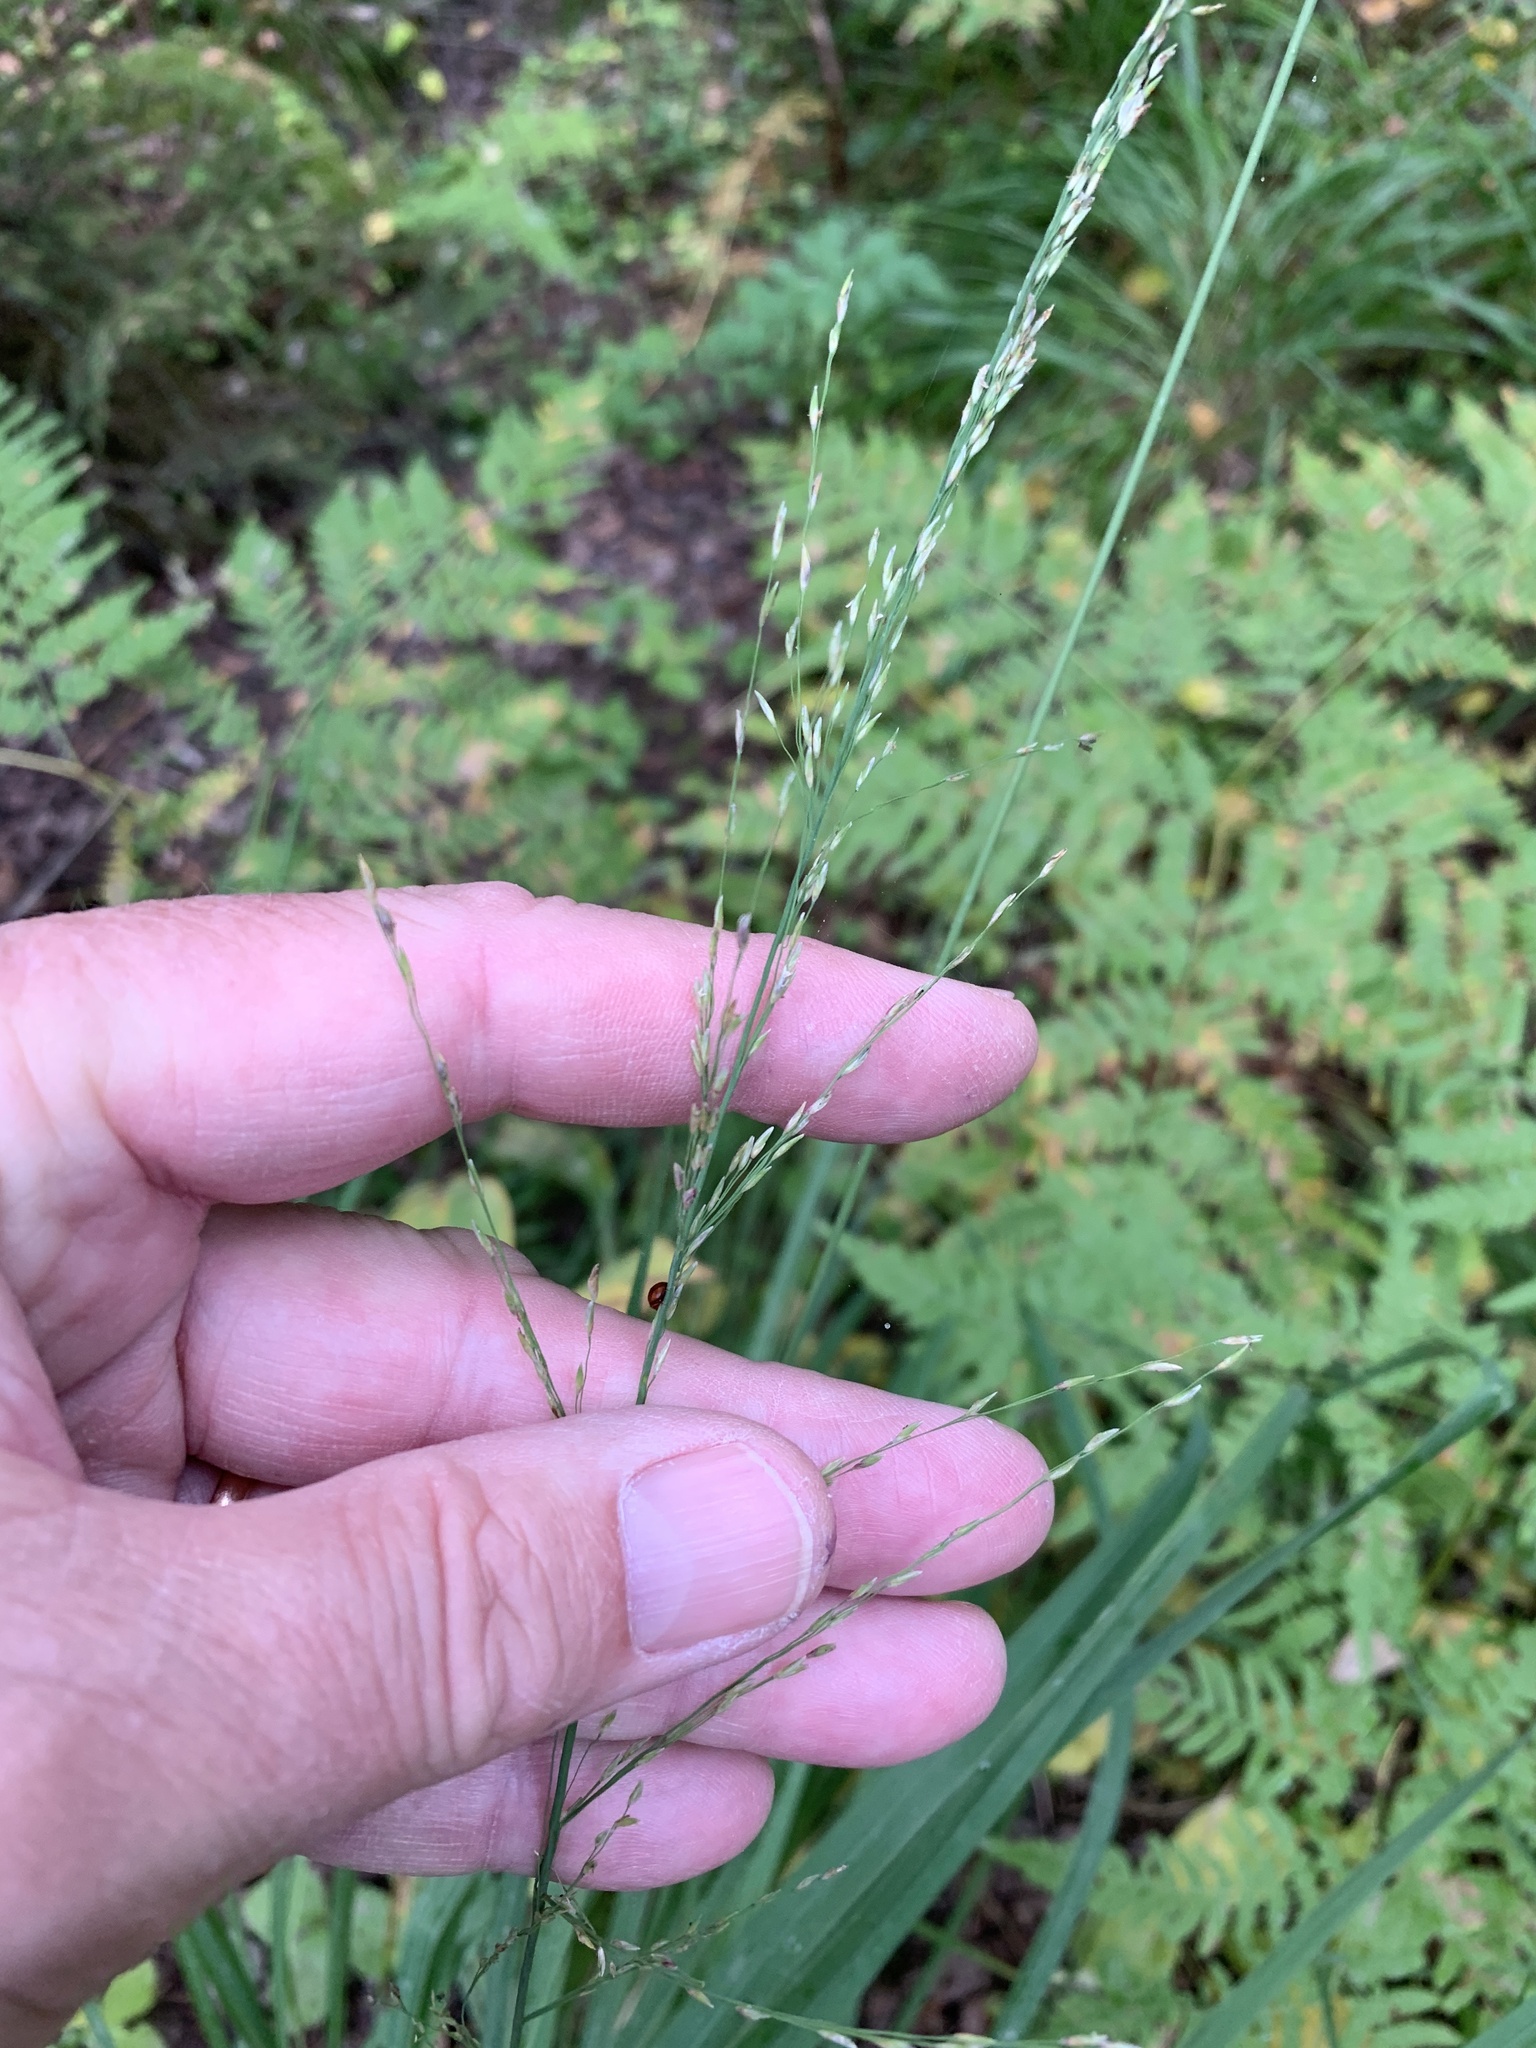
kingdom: Plantae
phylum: Tracheophyta
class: Liliopsida
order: Poales
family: Poaceae
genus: Molinia
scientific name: Molinia caerulea
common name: Purple moor-grass
